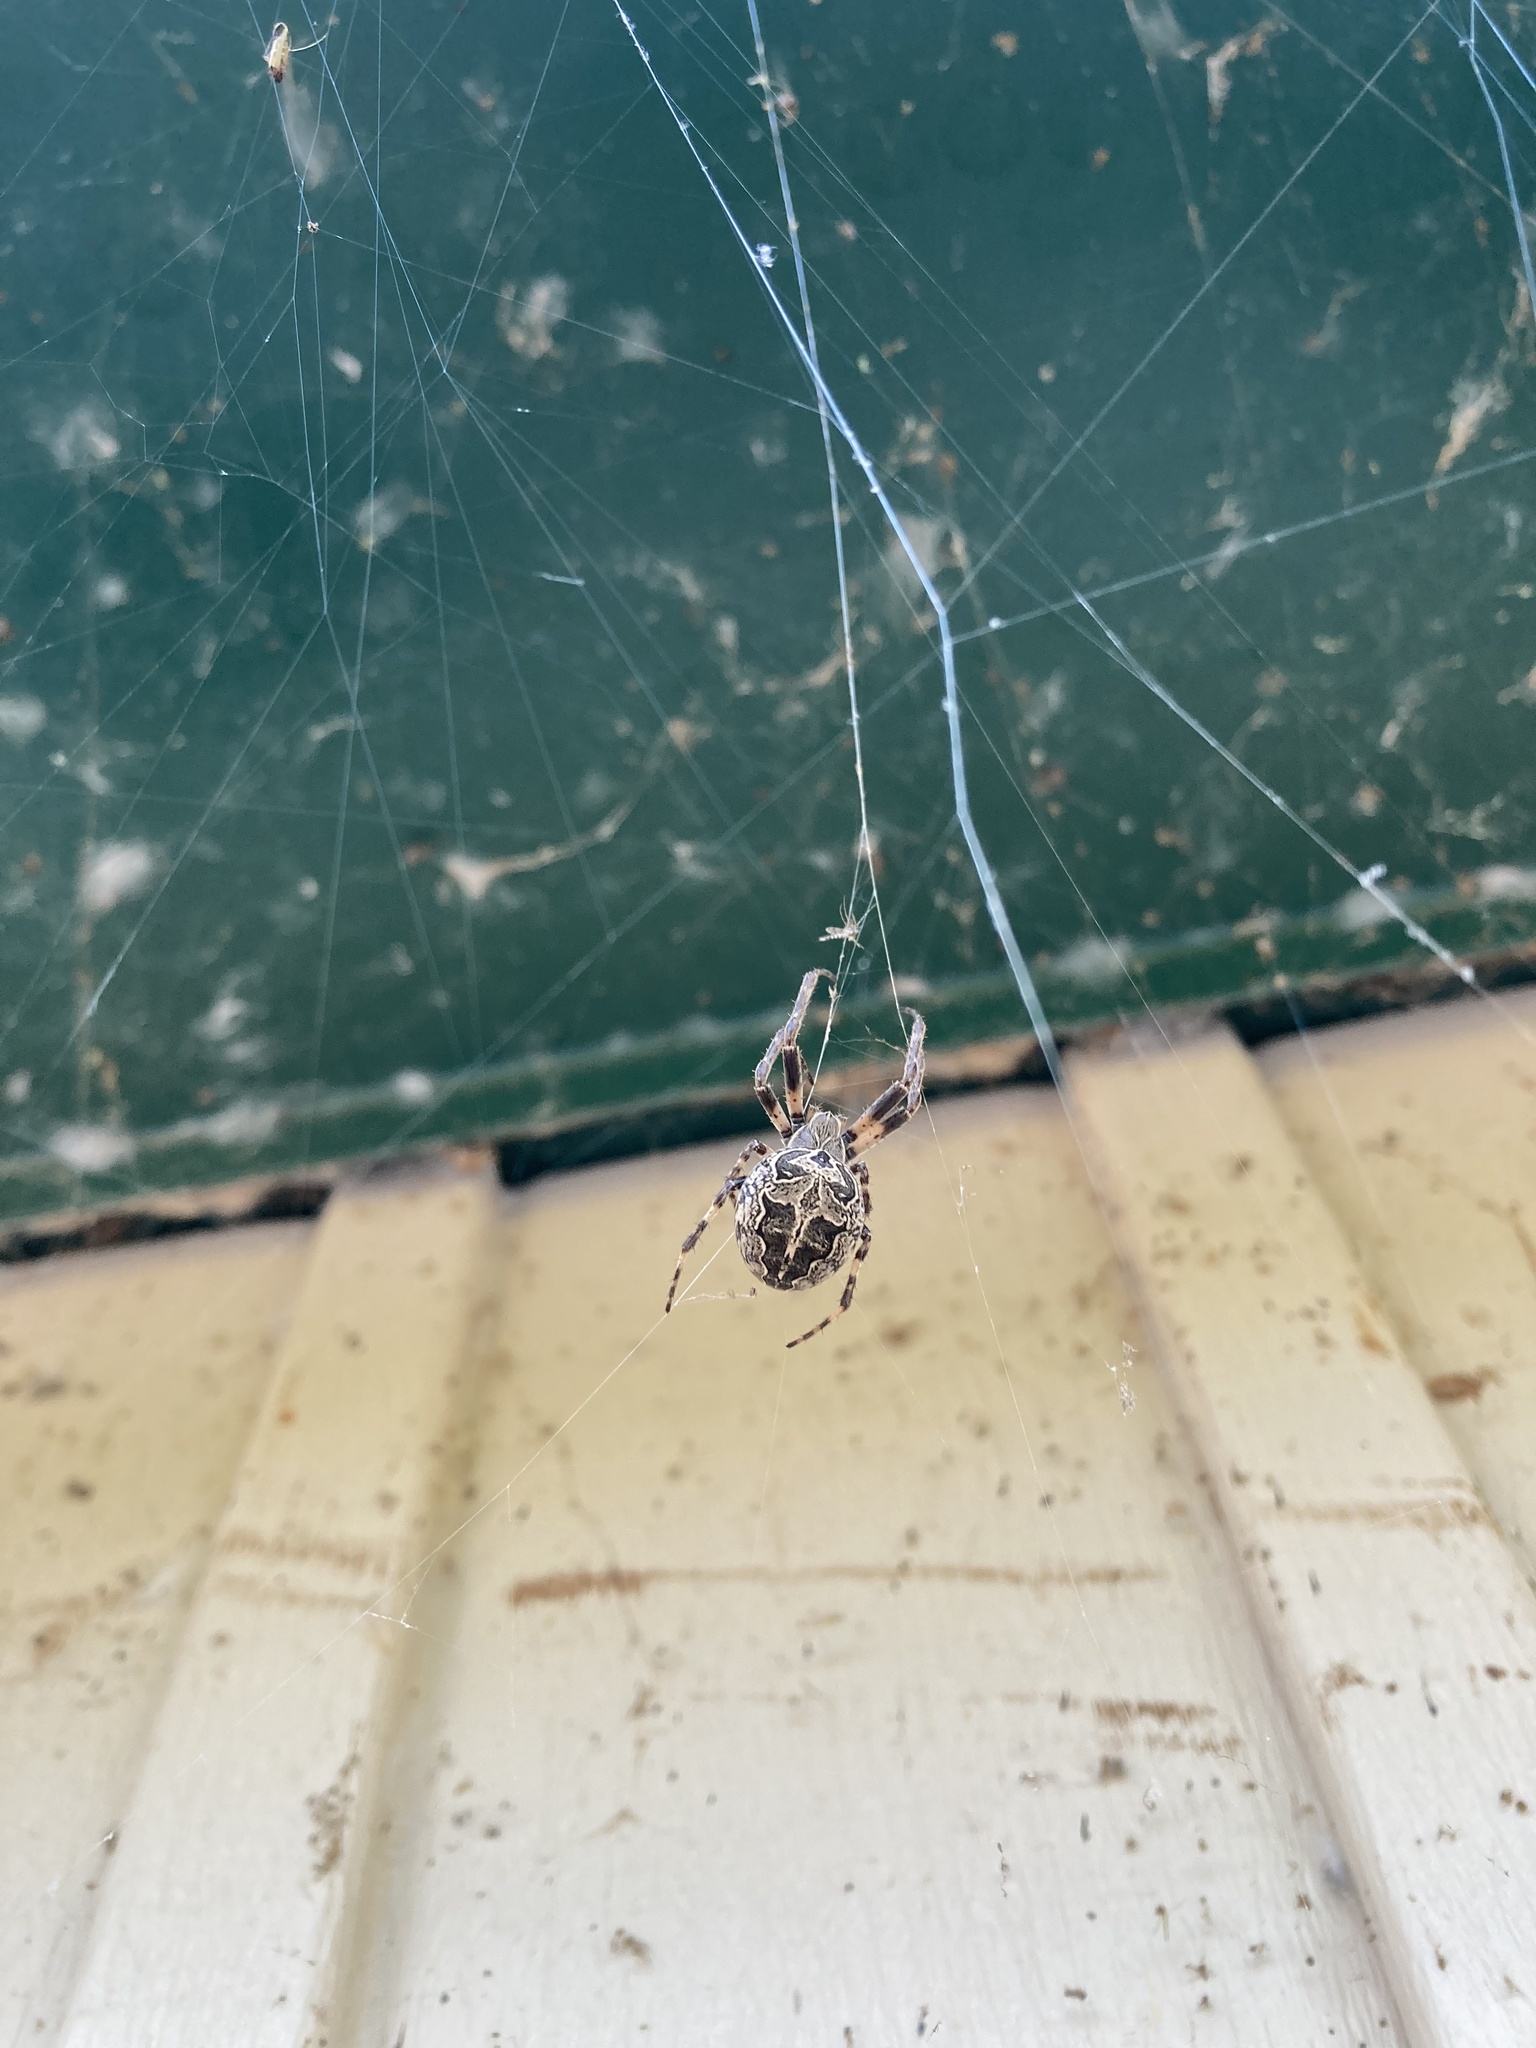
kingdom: Animalia
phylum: Arthropoda
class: Arachnida
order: Araneae
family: Araneidae
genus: Larinioides
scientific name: Larinioides sclopetarius
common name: Bridge orbweaver
